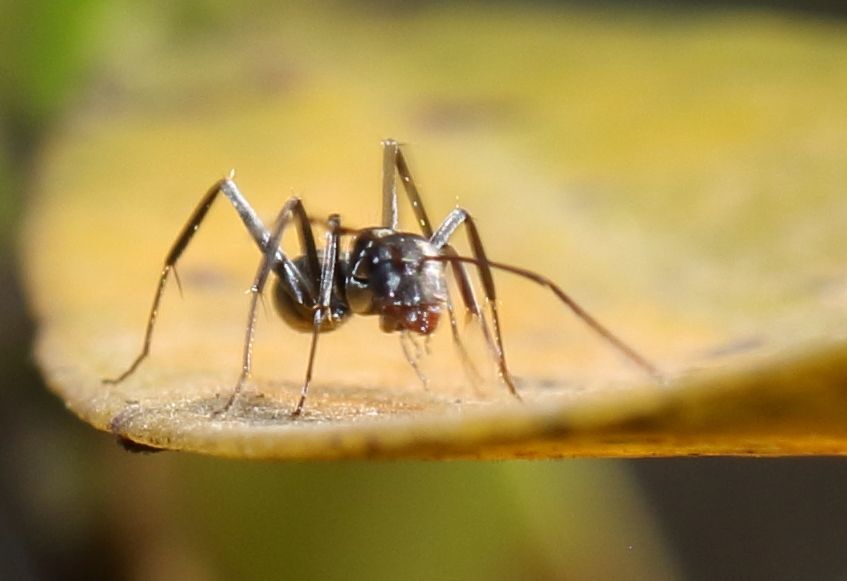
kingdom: Animalia
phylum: Arthropoda
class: Insecta
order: Hymenoptera
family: Formicidae
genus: Camponotus
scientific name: Camponotus natalensis
